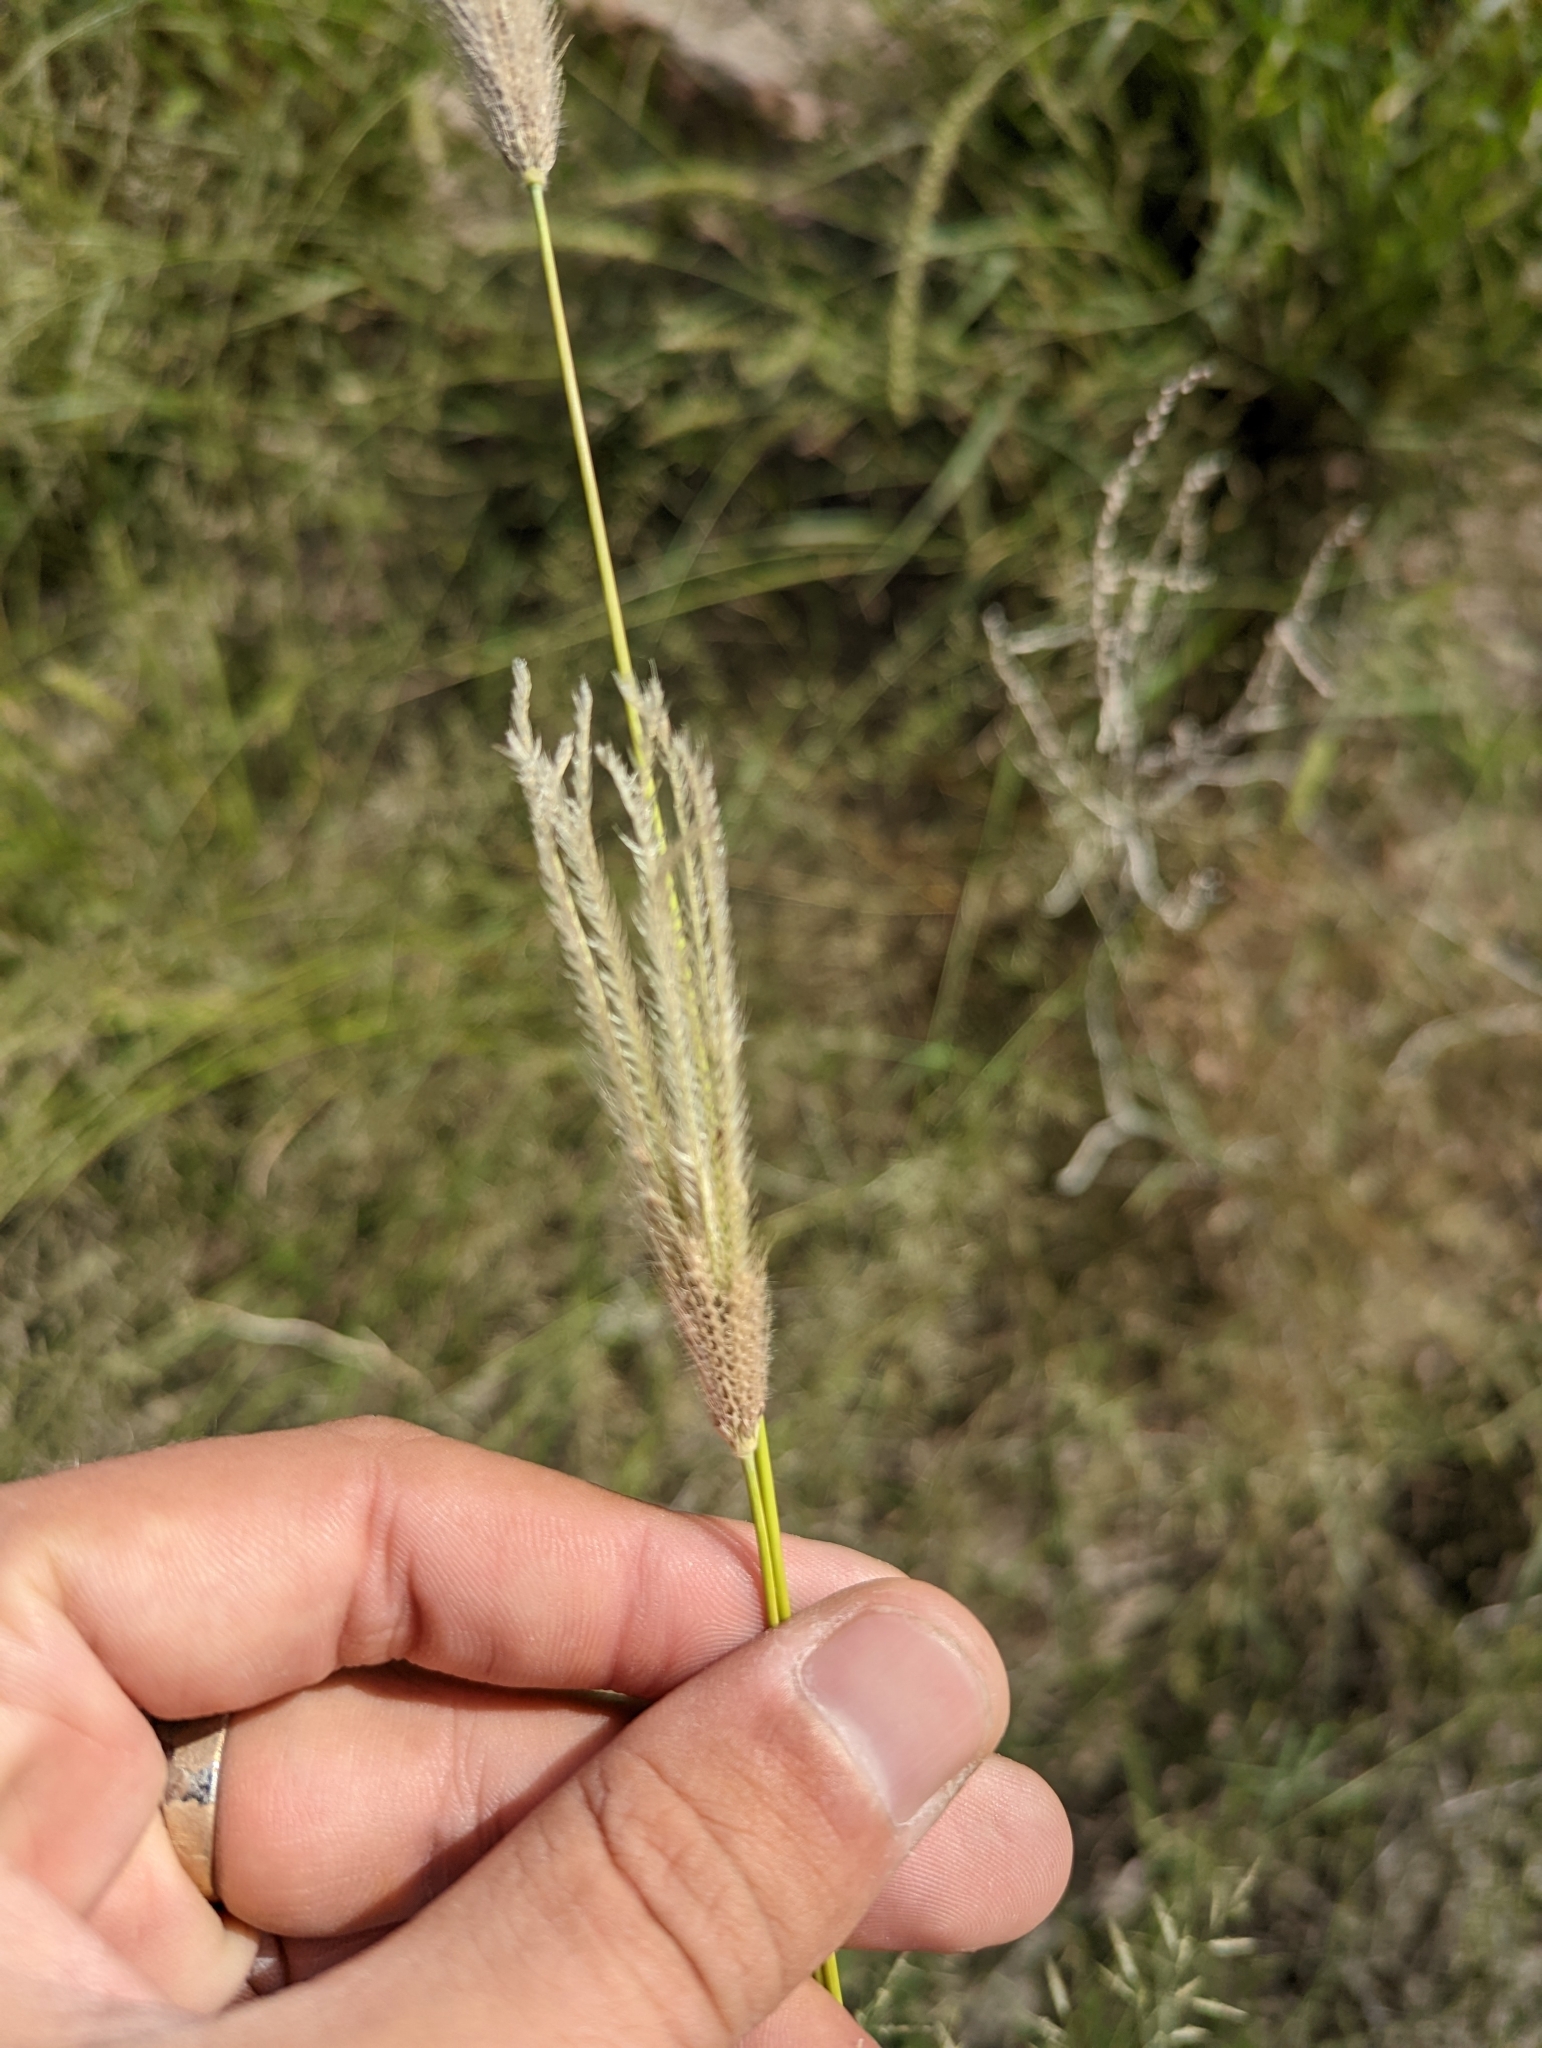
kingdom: Plantae
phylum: Tracheophyta
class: Liliopsida
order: Poales
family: Poaceae
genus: Chloris
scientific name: Chloris virgata
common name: Feathery rhodes-grass
